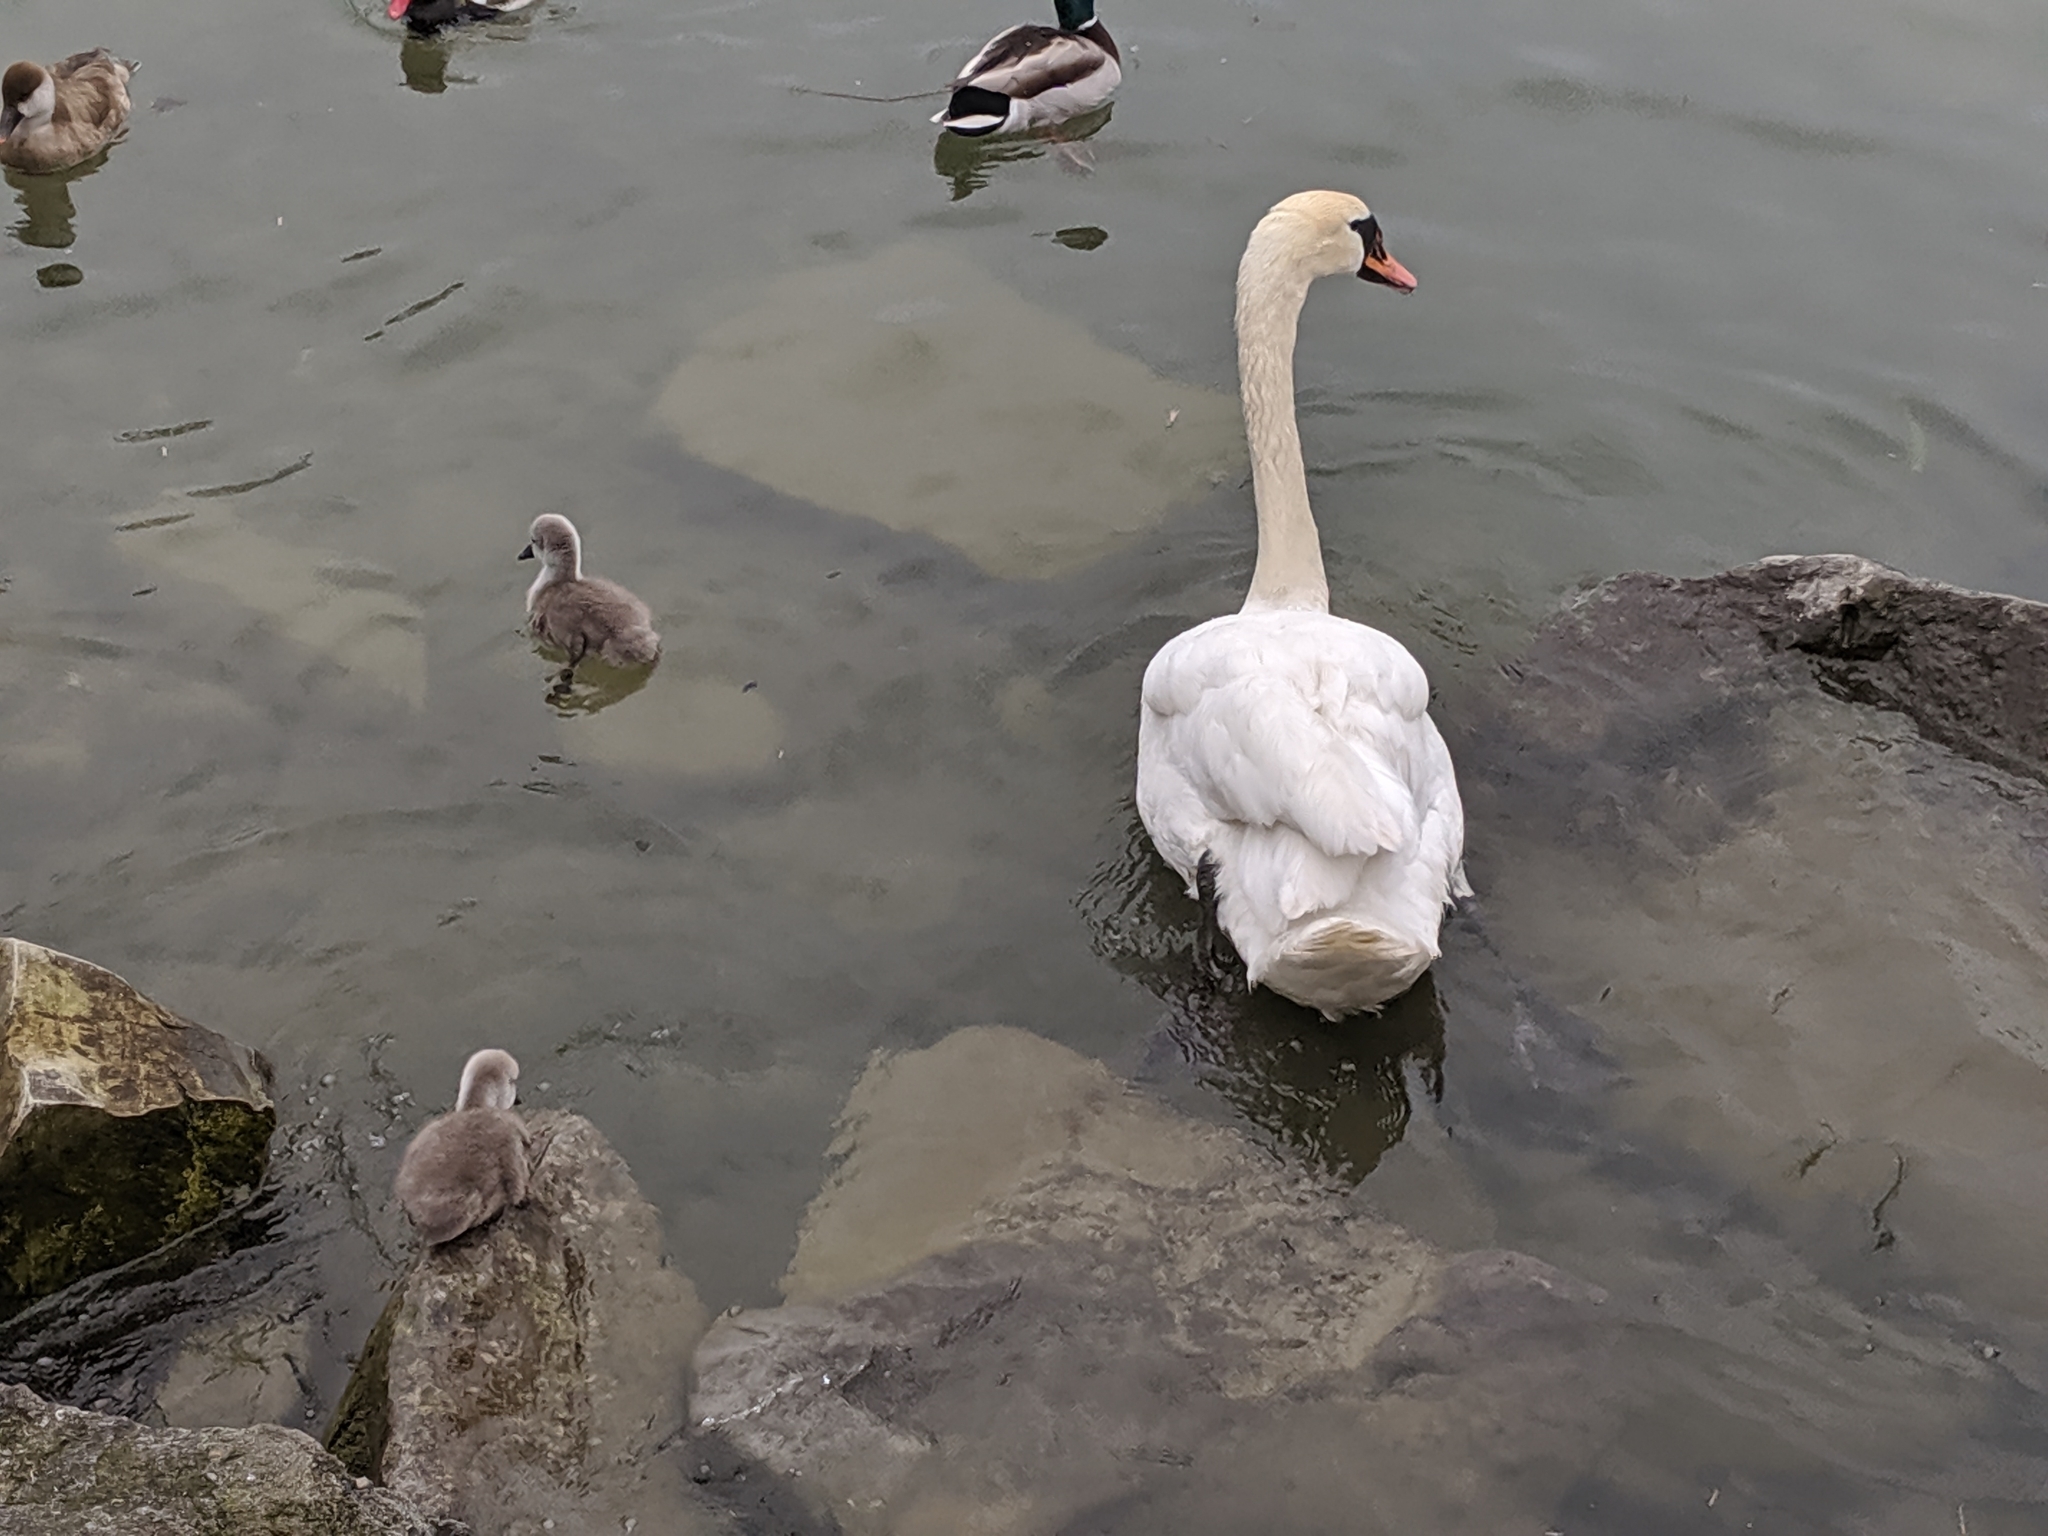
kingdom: Animalia
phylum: Chordata
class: Aves
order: Anseriformes
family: Anatidae
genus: Cygnus
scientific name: Cygnus olor
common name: Mute swan
